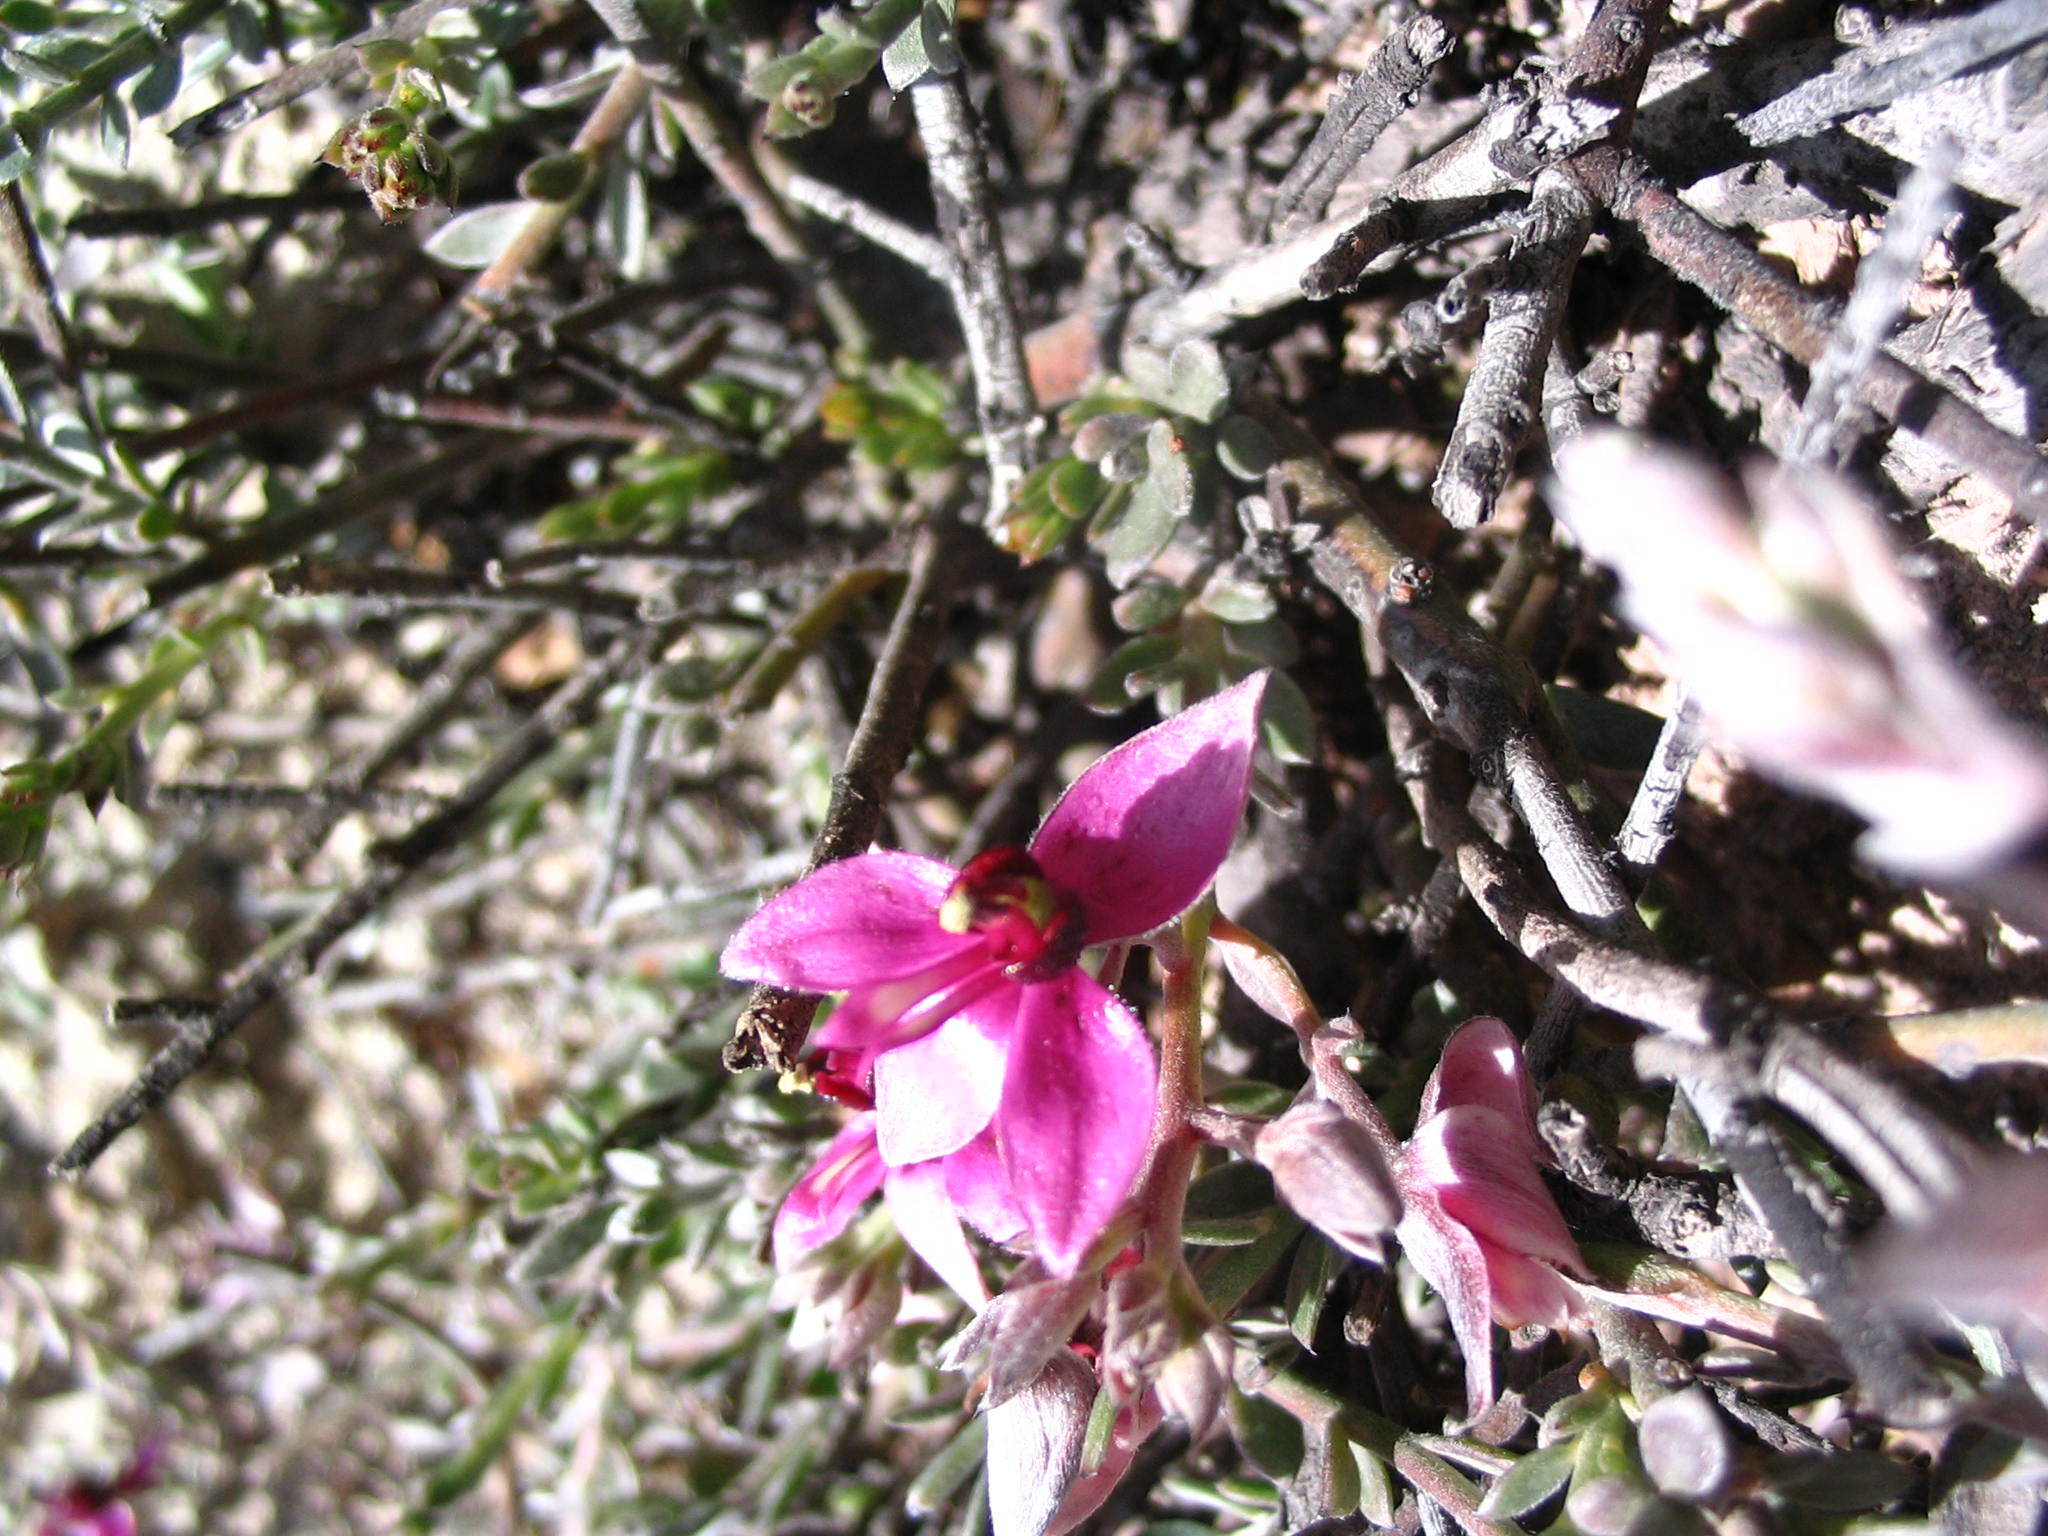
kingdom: Plantae
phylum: Tracheophyta
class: Magnoliopsida
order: Zygophyllales
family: Krameriaceae
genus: Krameria
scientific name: Krameria lappacea
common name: Rhatany
